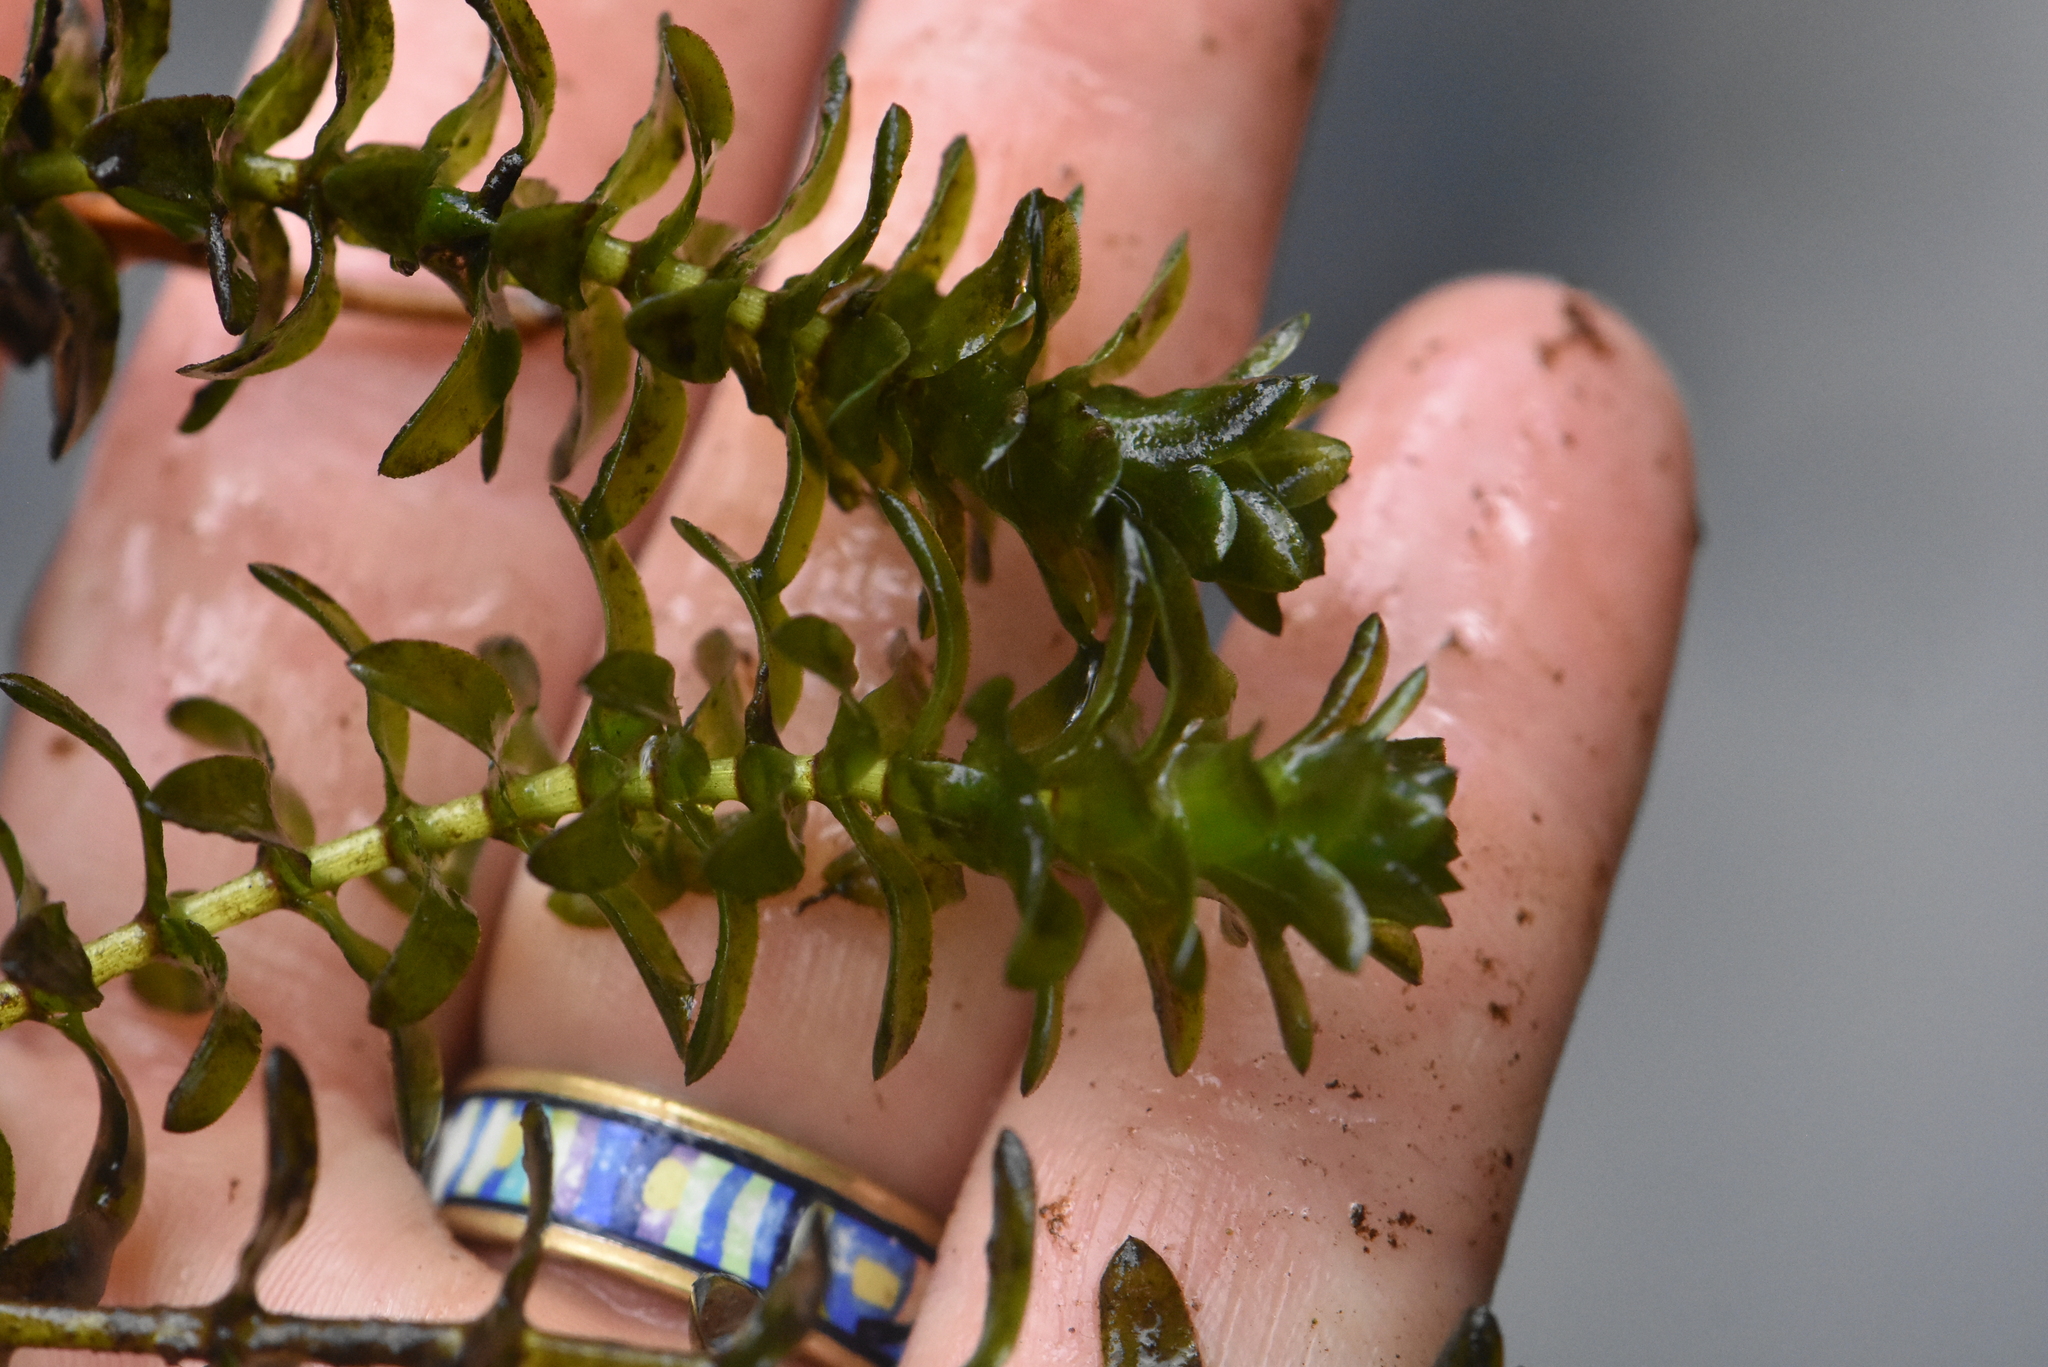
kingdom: Plantae
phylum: Tracheophyta
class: Liliopsida
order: Alismatales
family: Hydrocharitaceae
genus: Elodea
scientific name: Elodea canadensis
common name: Canadian waterweed
